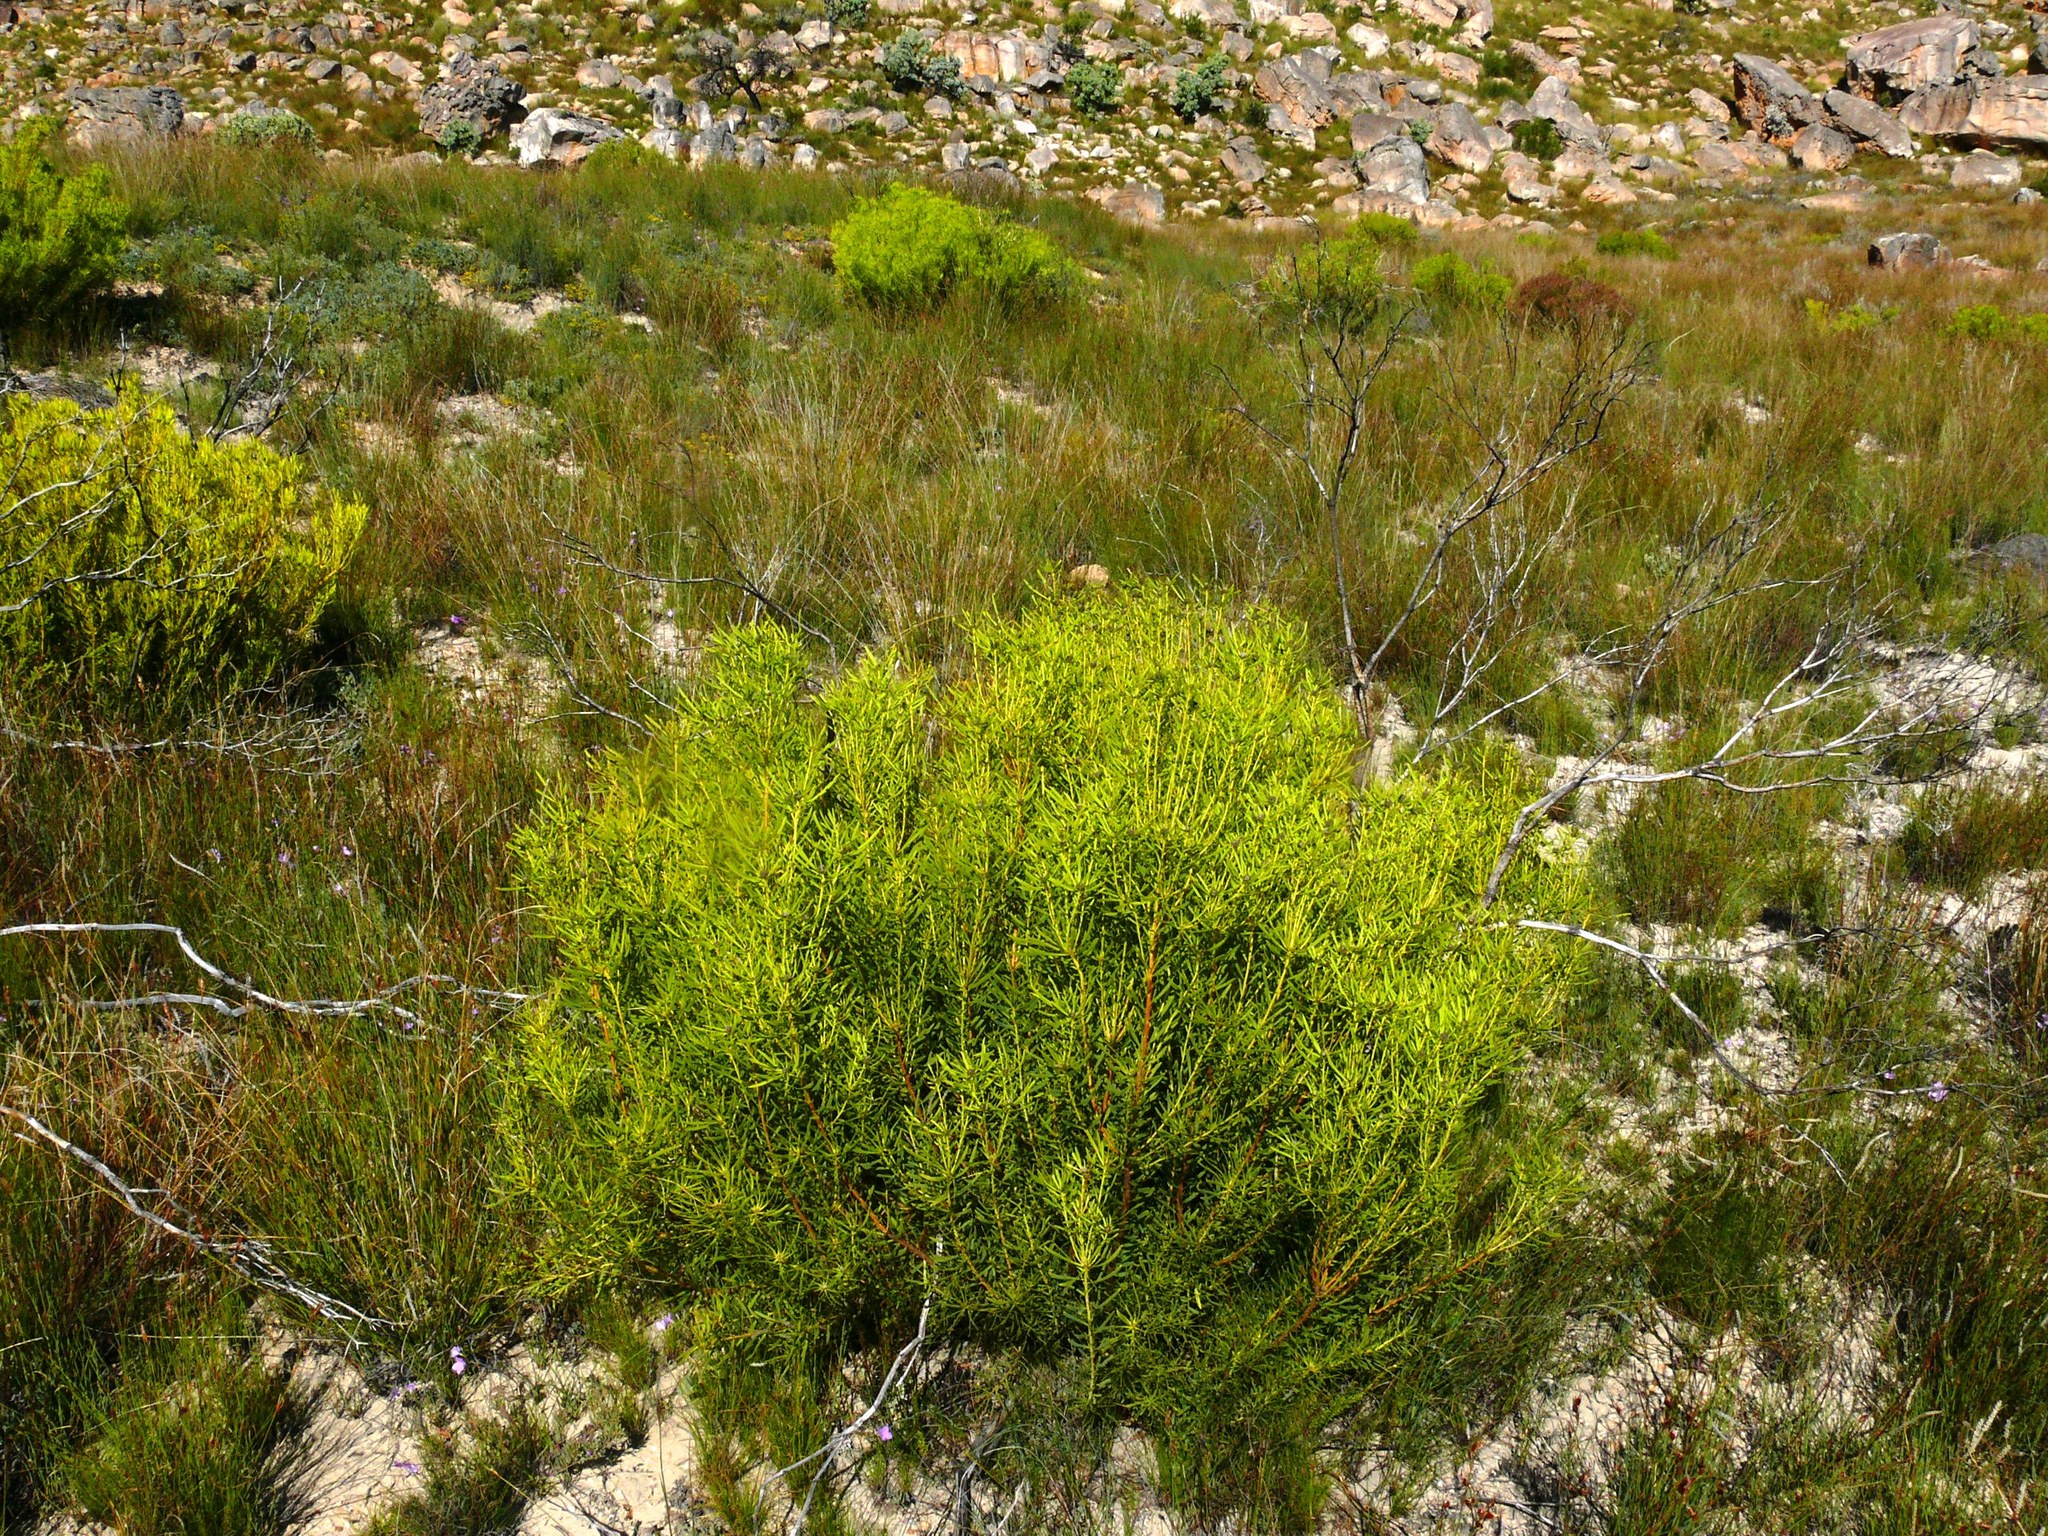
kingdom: Plantae
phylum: Tracheophyta
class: Magnoliopsida
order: Proteales
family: Proteaceae
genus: Leucadendron
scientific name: Leucadendron salignum
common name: Common sunshine conebush
